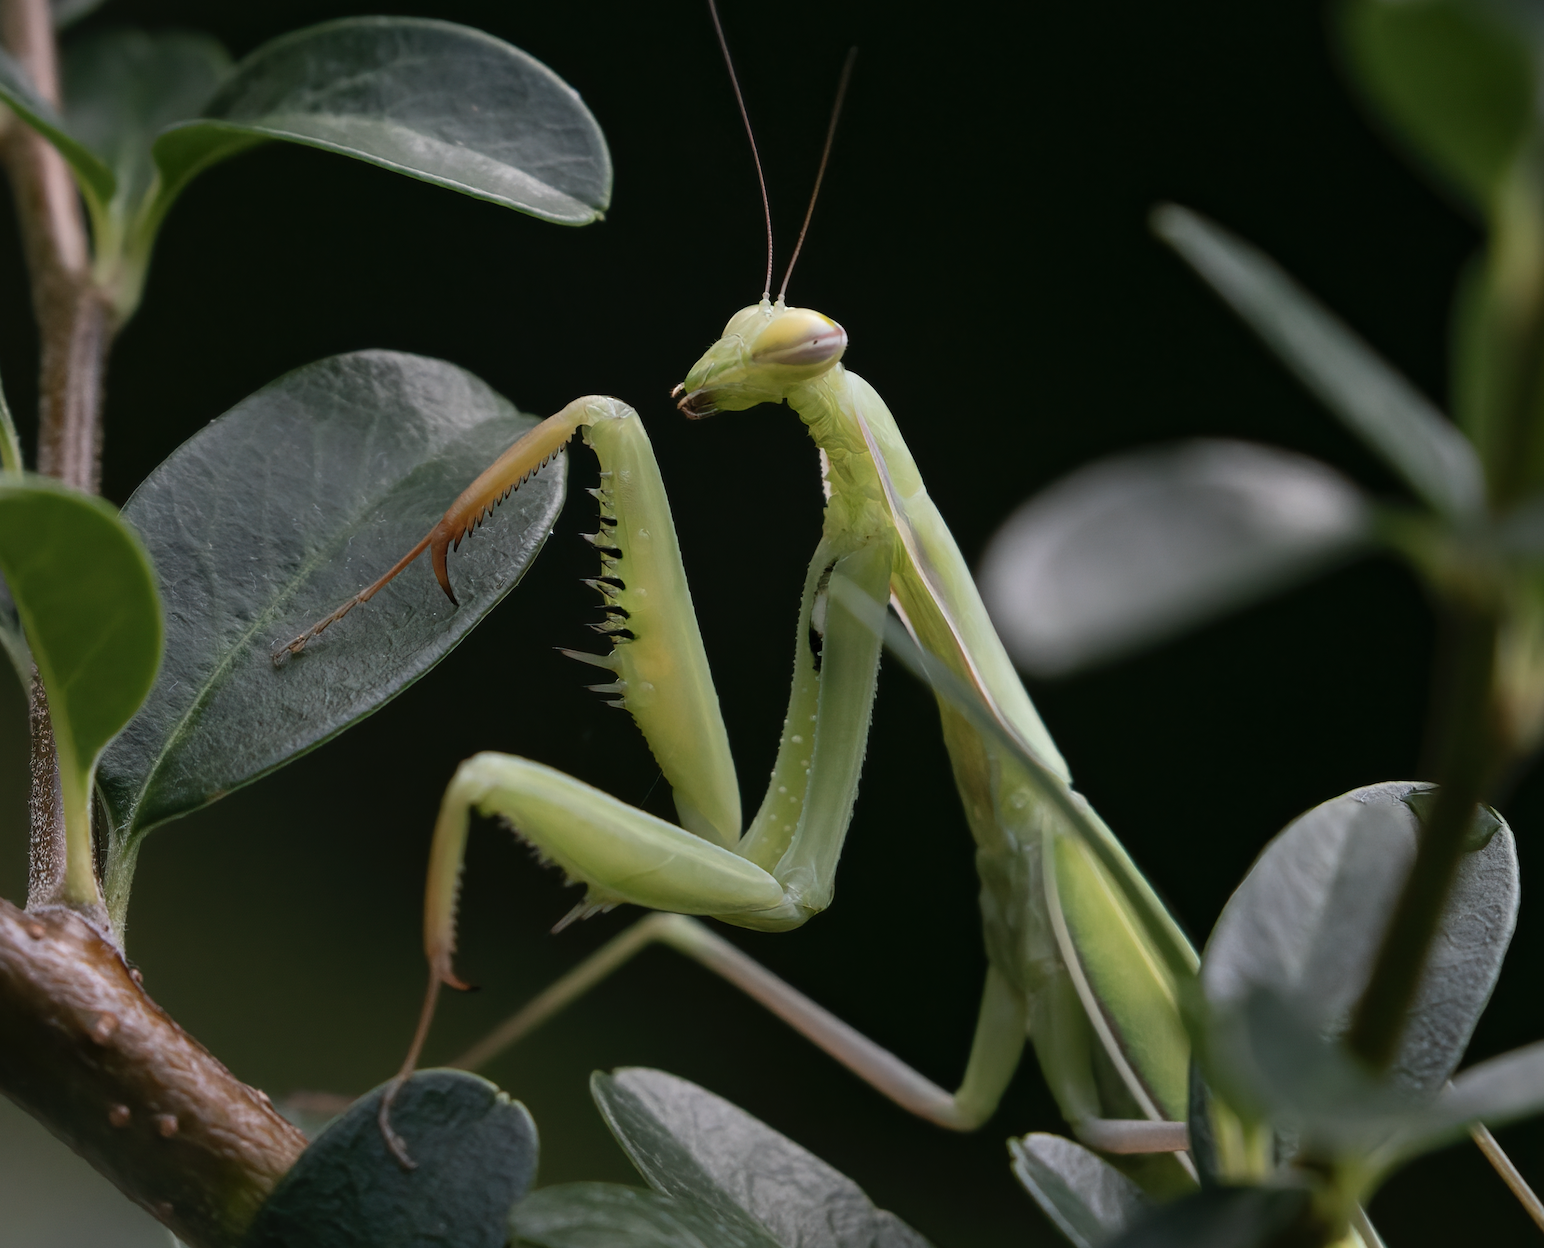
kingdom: Animalia
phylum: Arthropoda
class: Insecta
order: Mantodea
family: Mantidae
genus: Mantis
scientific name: Mantis religiosa
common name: Praying mantis
